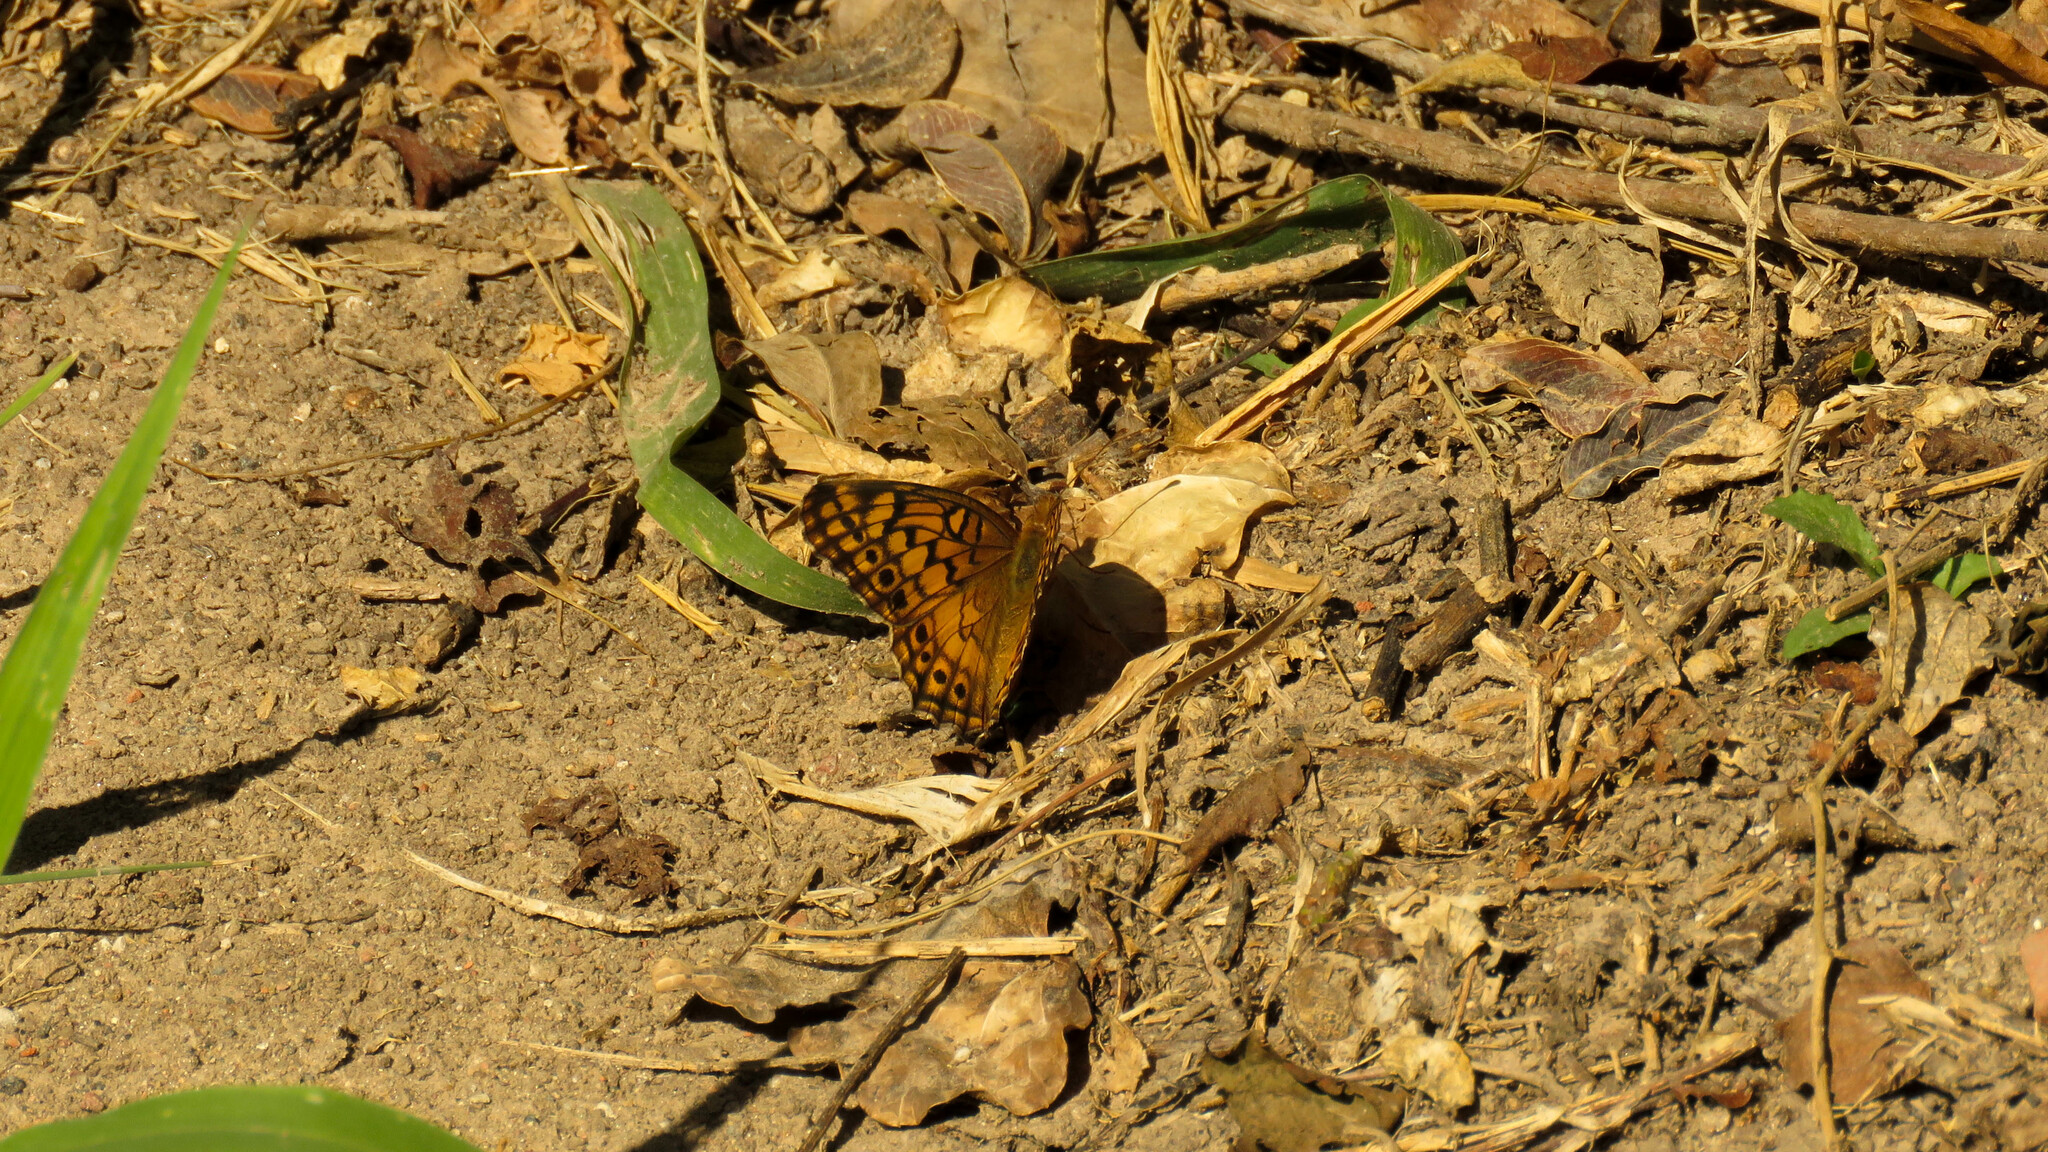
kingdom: Animalia
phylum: Arthropoda
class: Insecta
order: Lepidoptera
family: Nymphalidae
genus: Euptoieta
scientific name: Euptoieta hortensia
